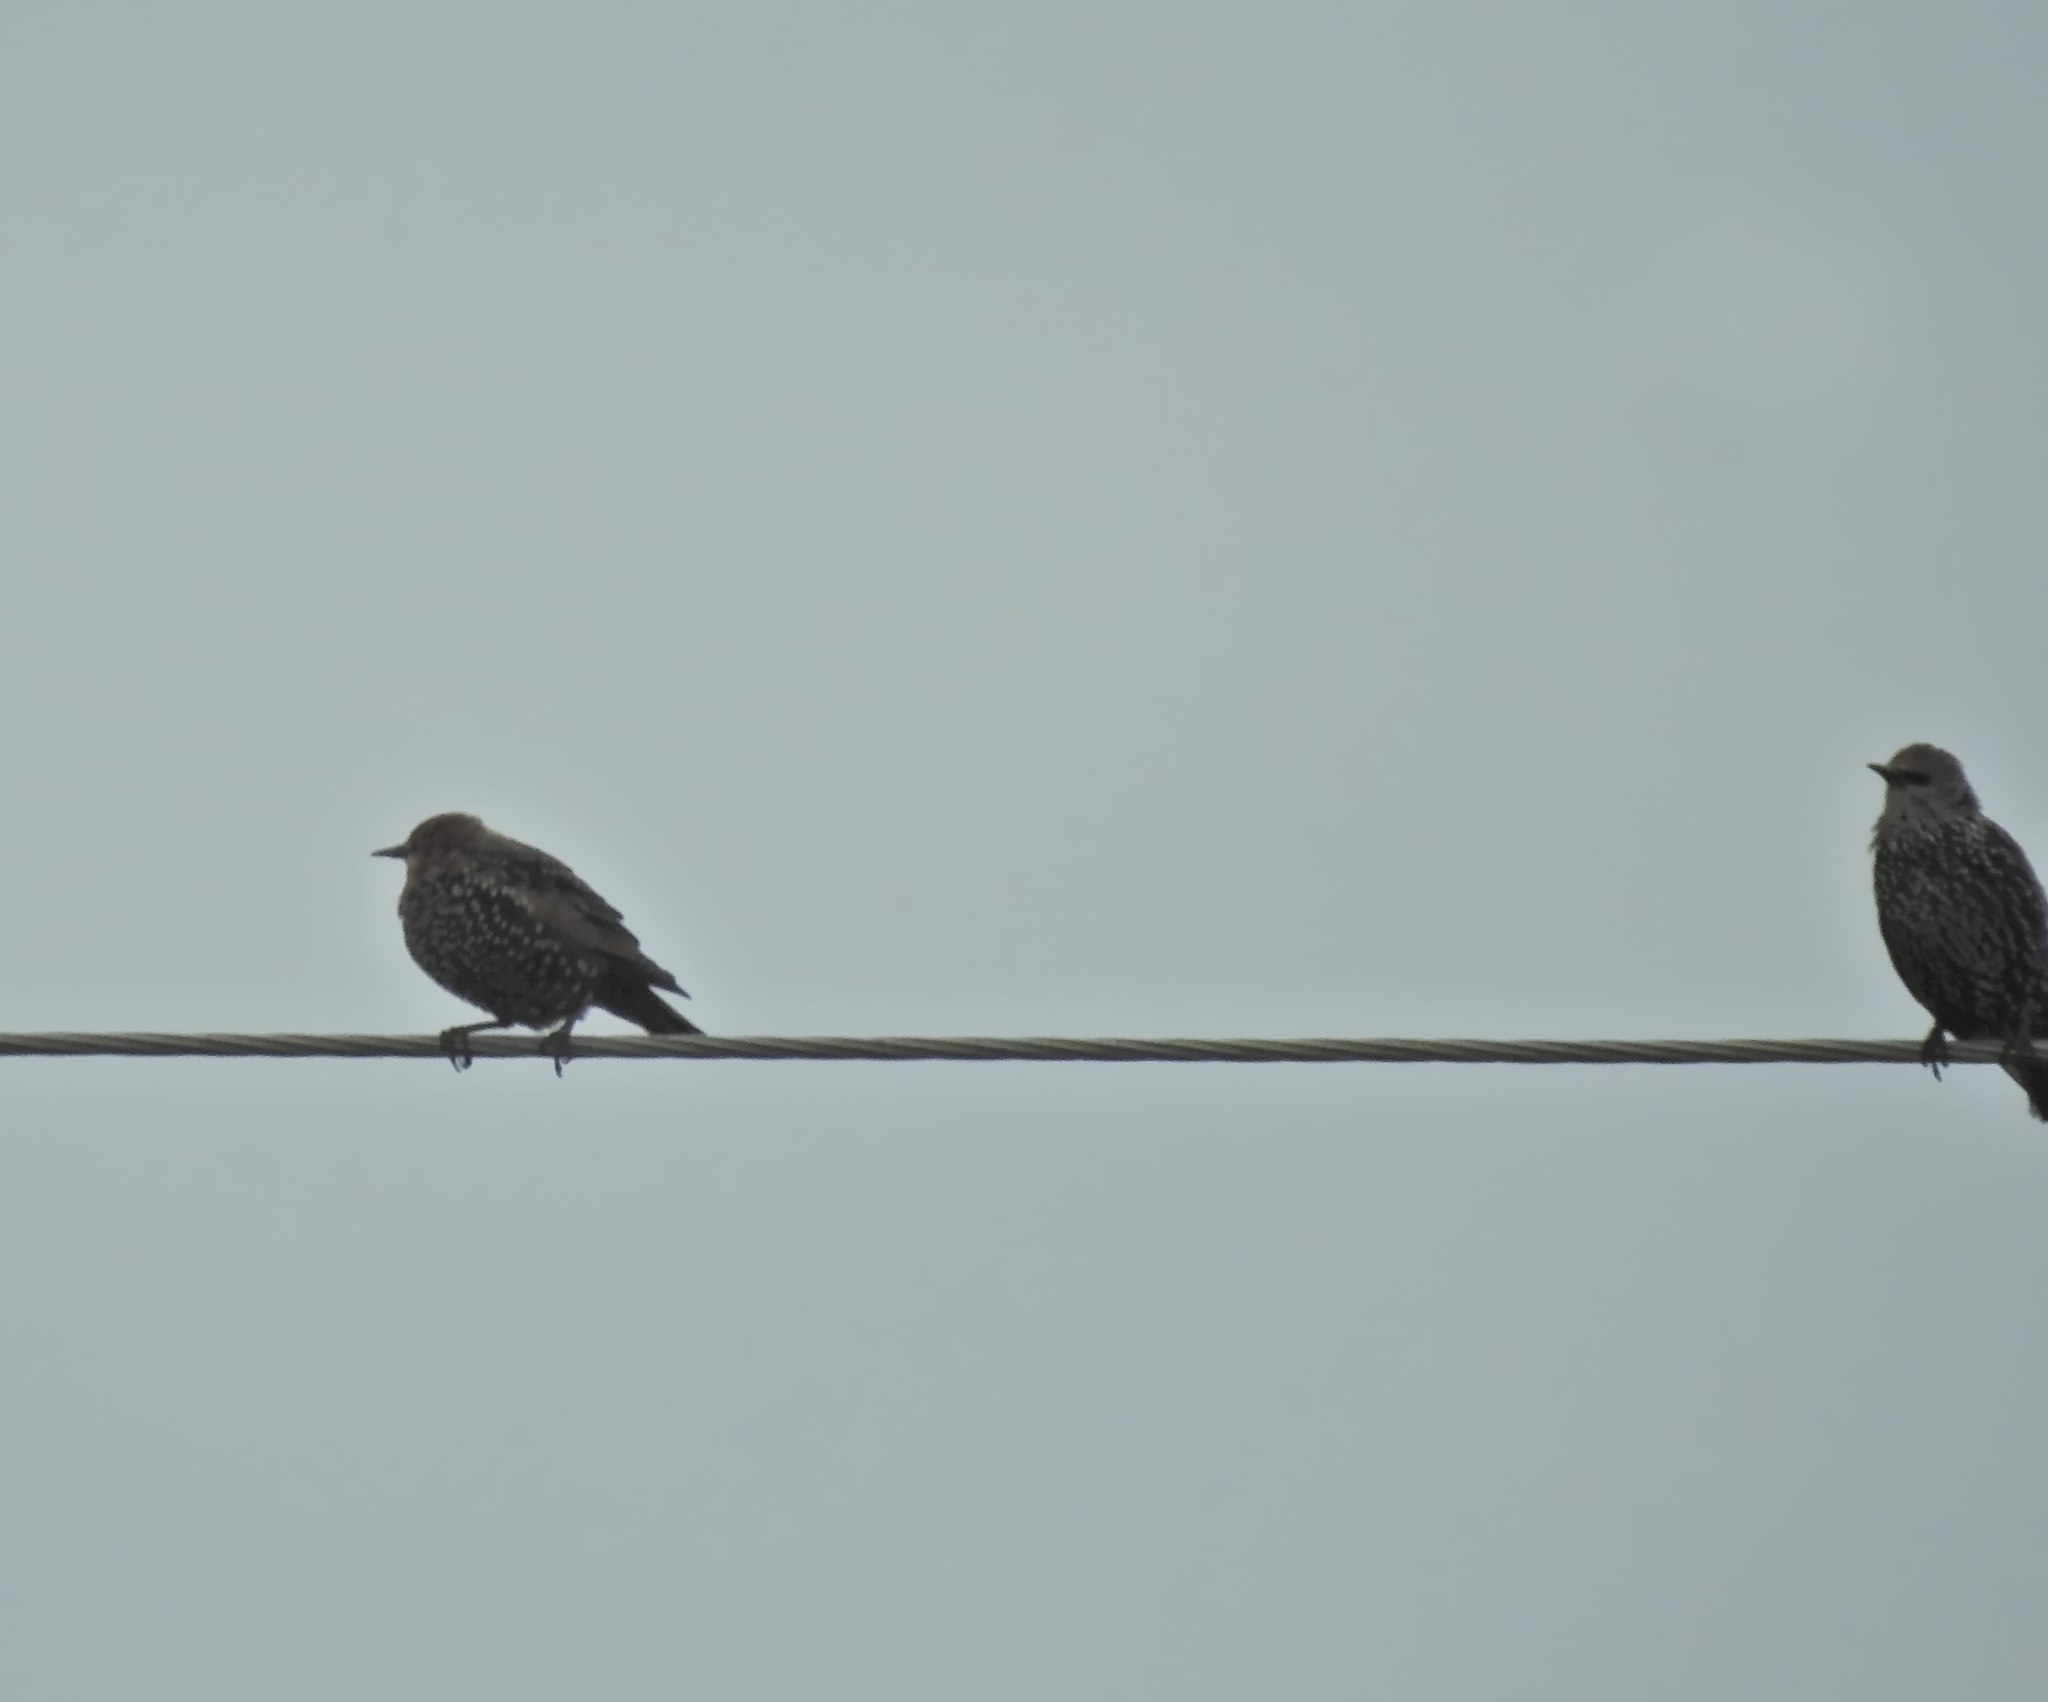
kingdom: Animalia
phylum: Chordata
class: Aves
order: Passeriformes
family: Sturnidae
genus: Sturnus
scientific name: Sturnus vulgaris
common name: Common starling
